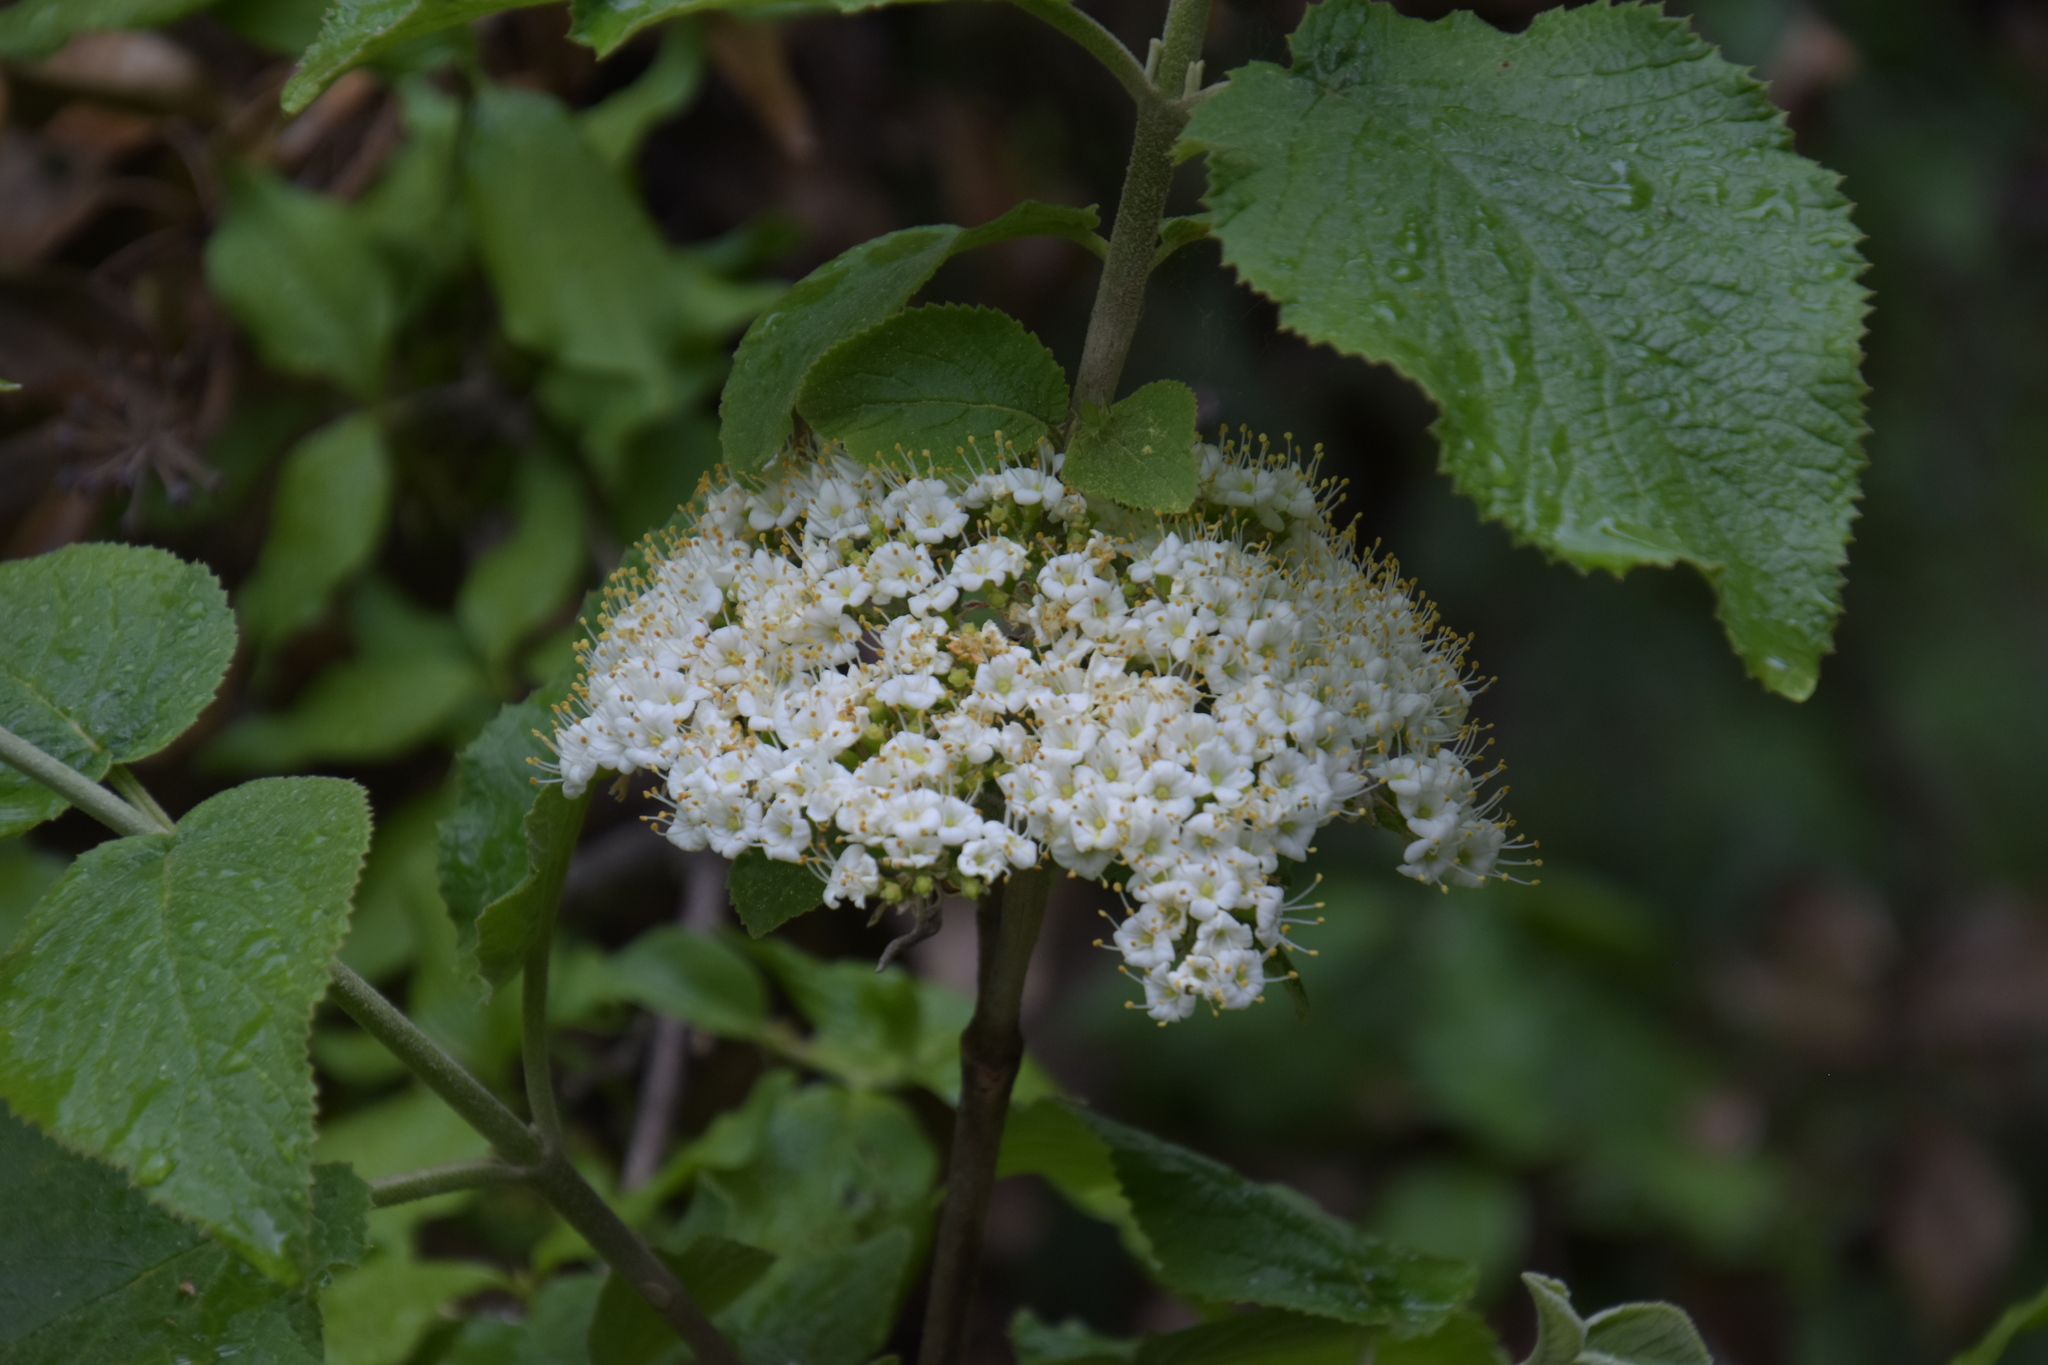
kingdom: Plantae
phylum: Tracheophyta
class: Magnoliopsida
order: Dipsacales
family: Viburnaceae
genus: Viburnum
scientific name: Viburnum lantana
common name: Wayfaring tree
